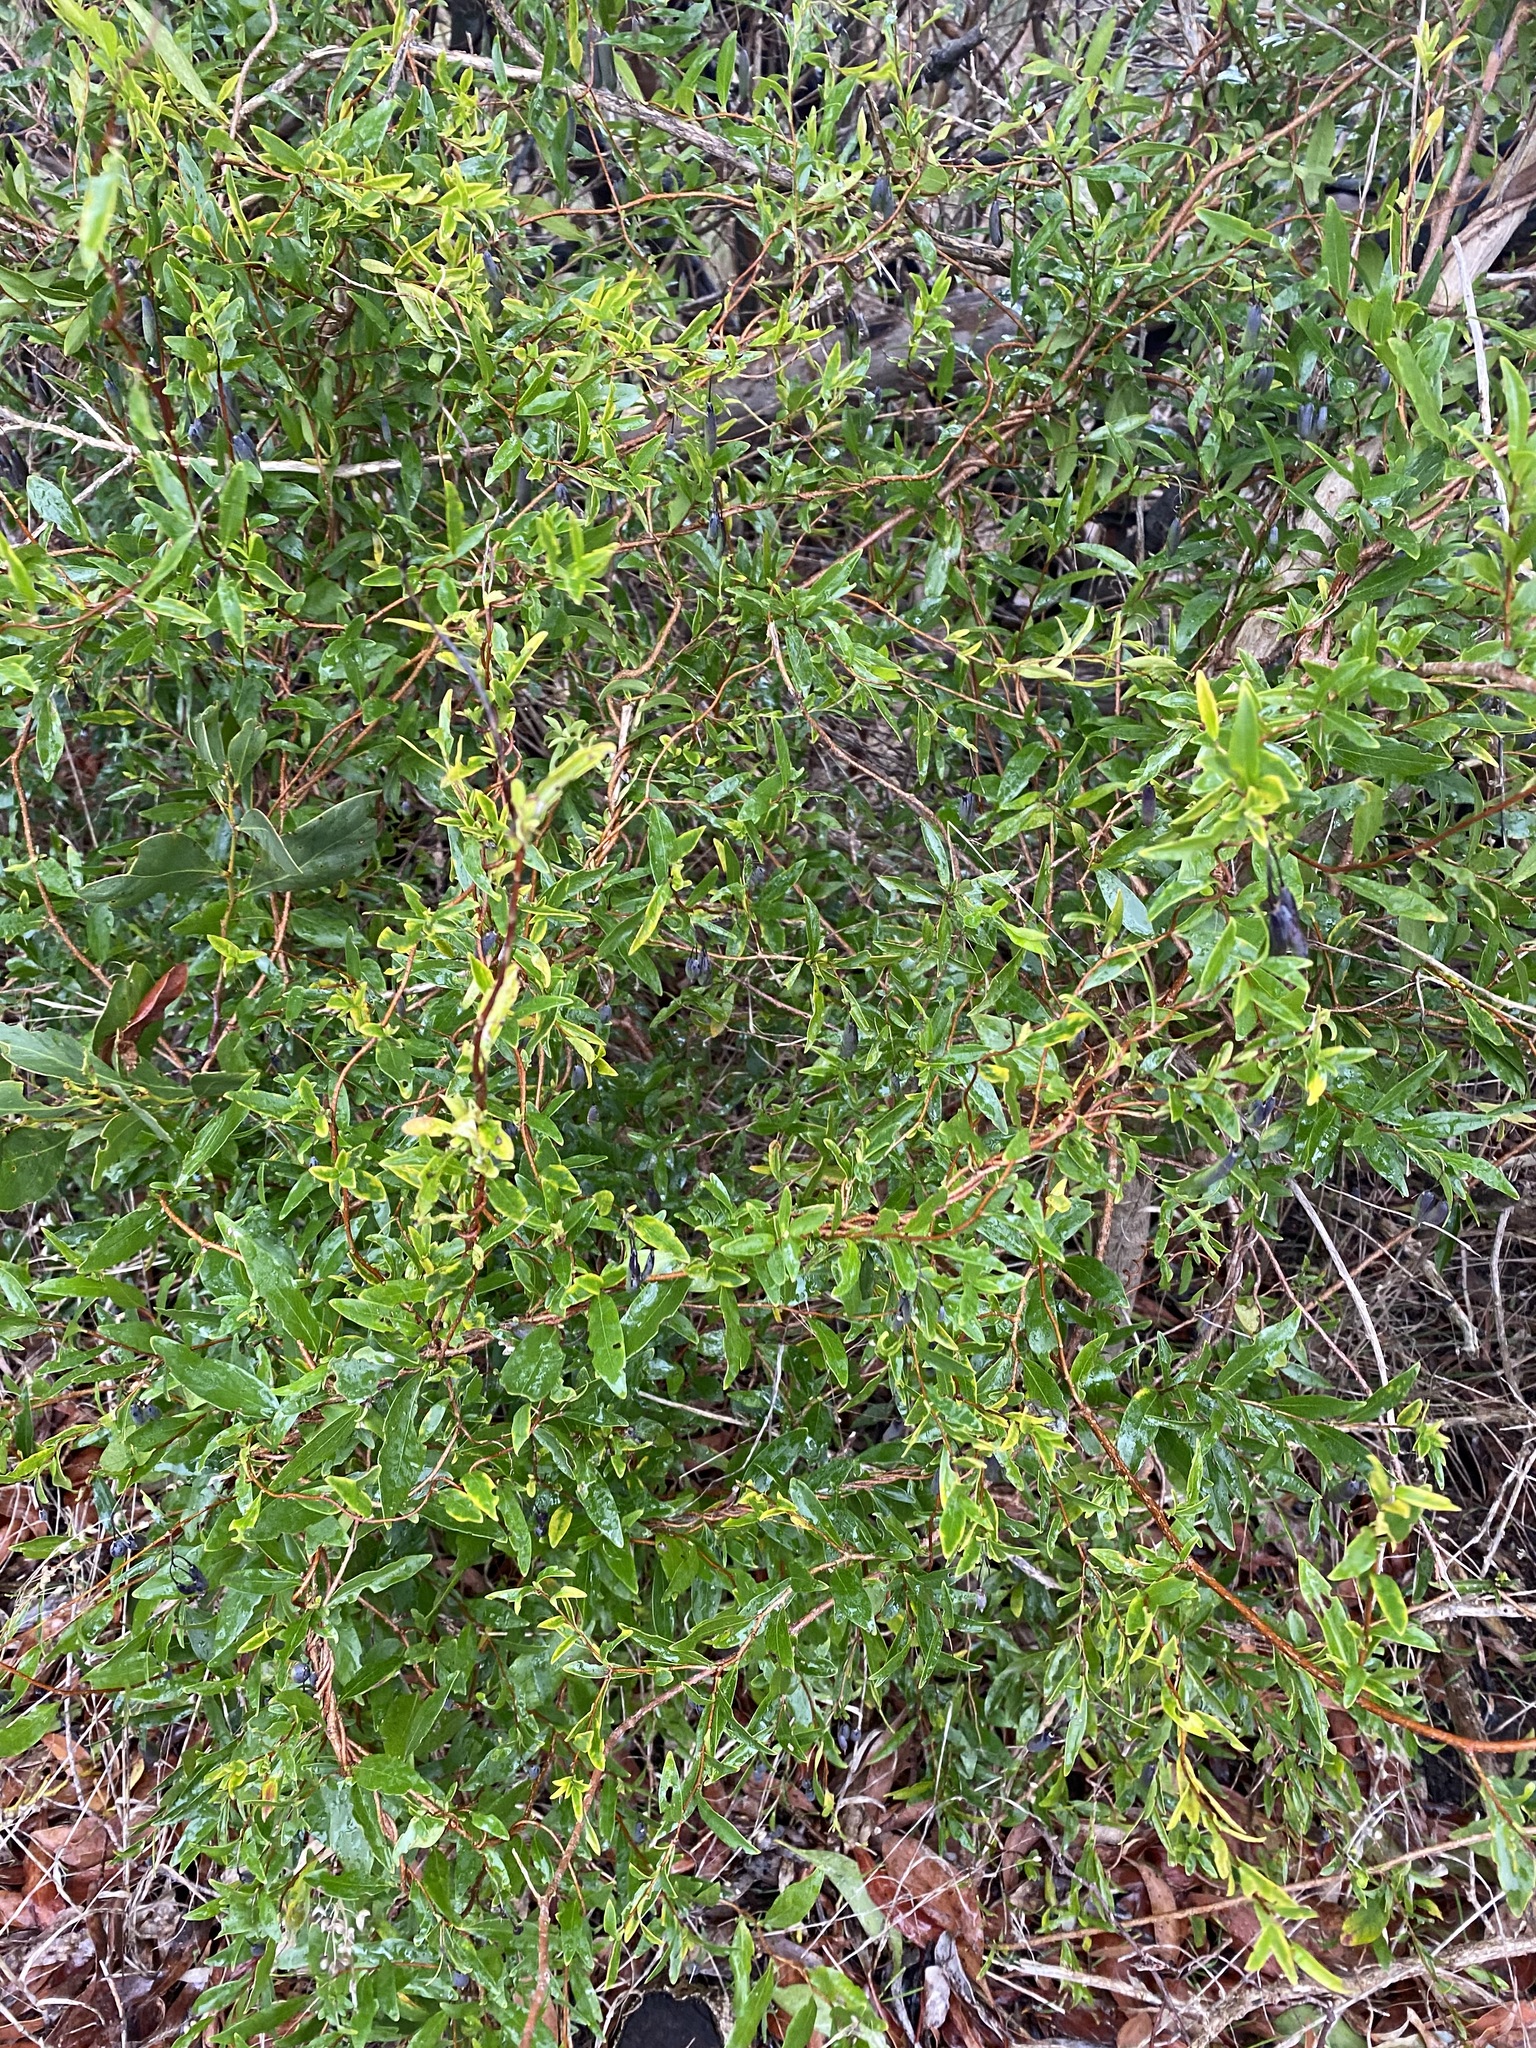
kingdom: Plantae
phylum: Tracheophyta
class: Magnoliopsida
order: Apiales
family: Pittosporaceae
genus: Billardiera
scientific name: Billardiera fusiformis
